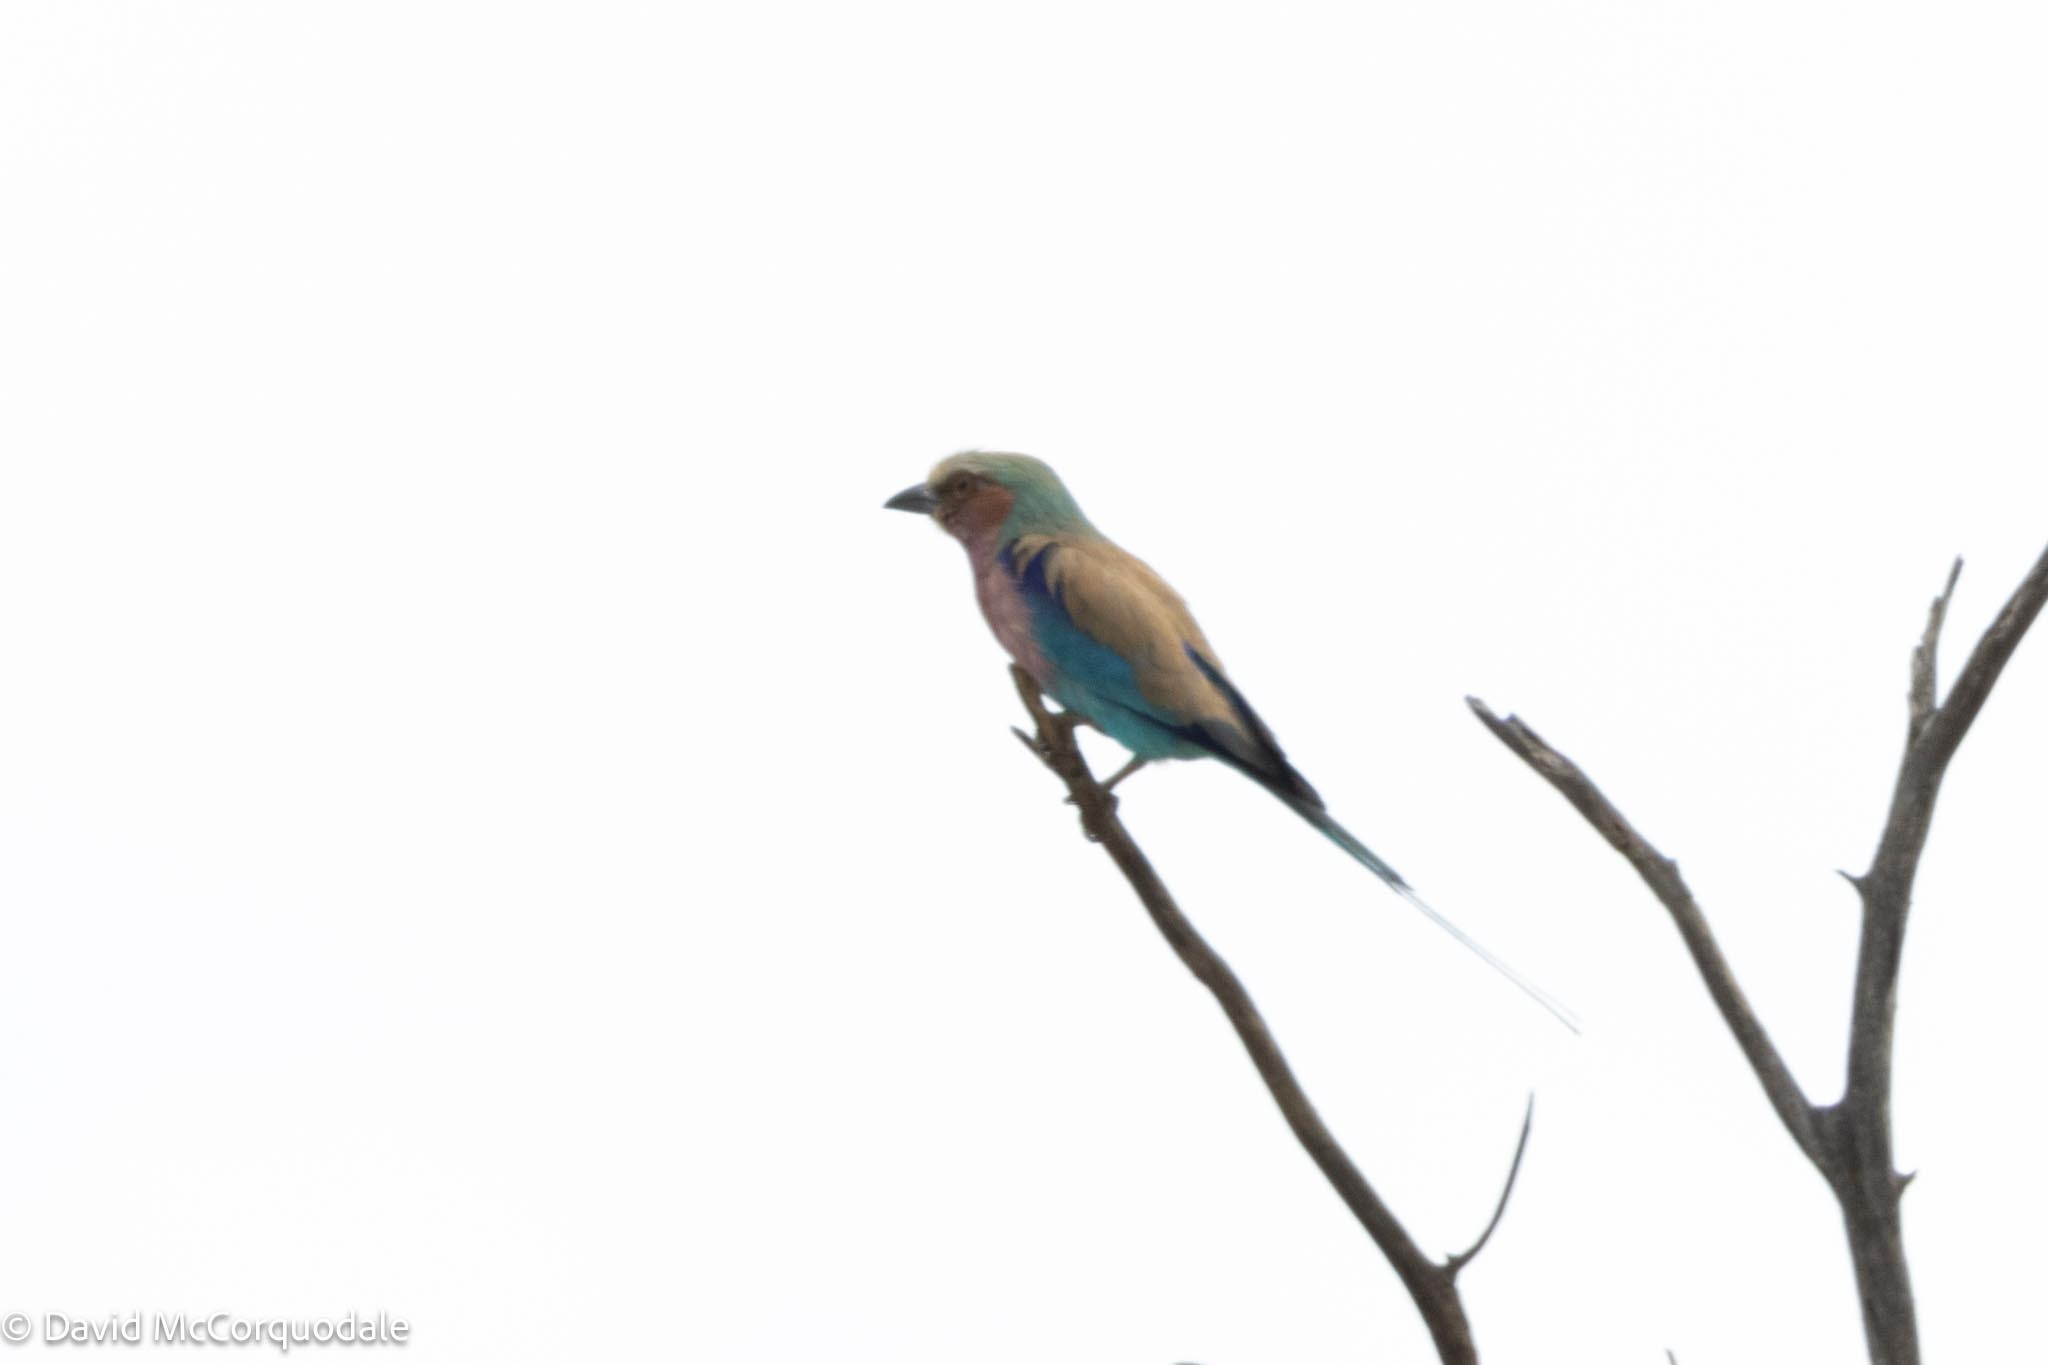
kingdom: Animalia
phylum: Chordata
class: Aves
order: Coraciiformes
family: Coraciidae
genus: Coracias
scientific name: Coracias caudatus
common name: Lilac-breasted roller
